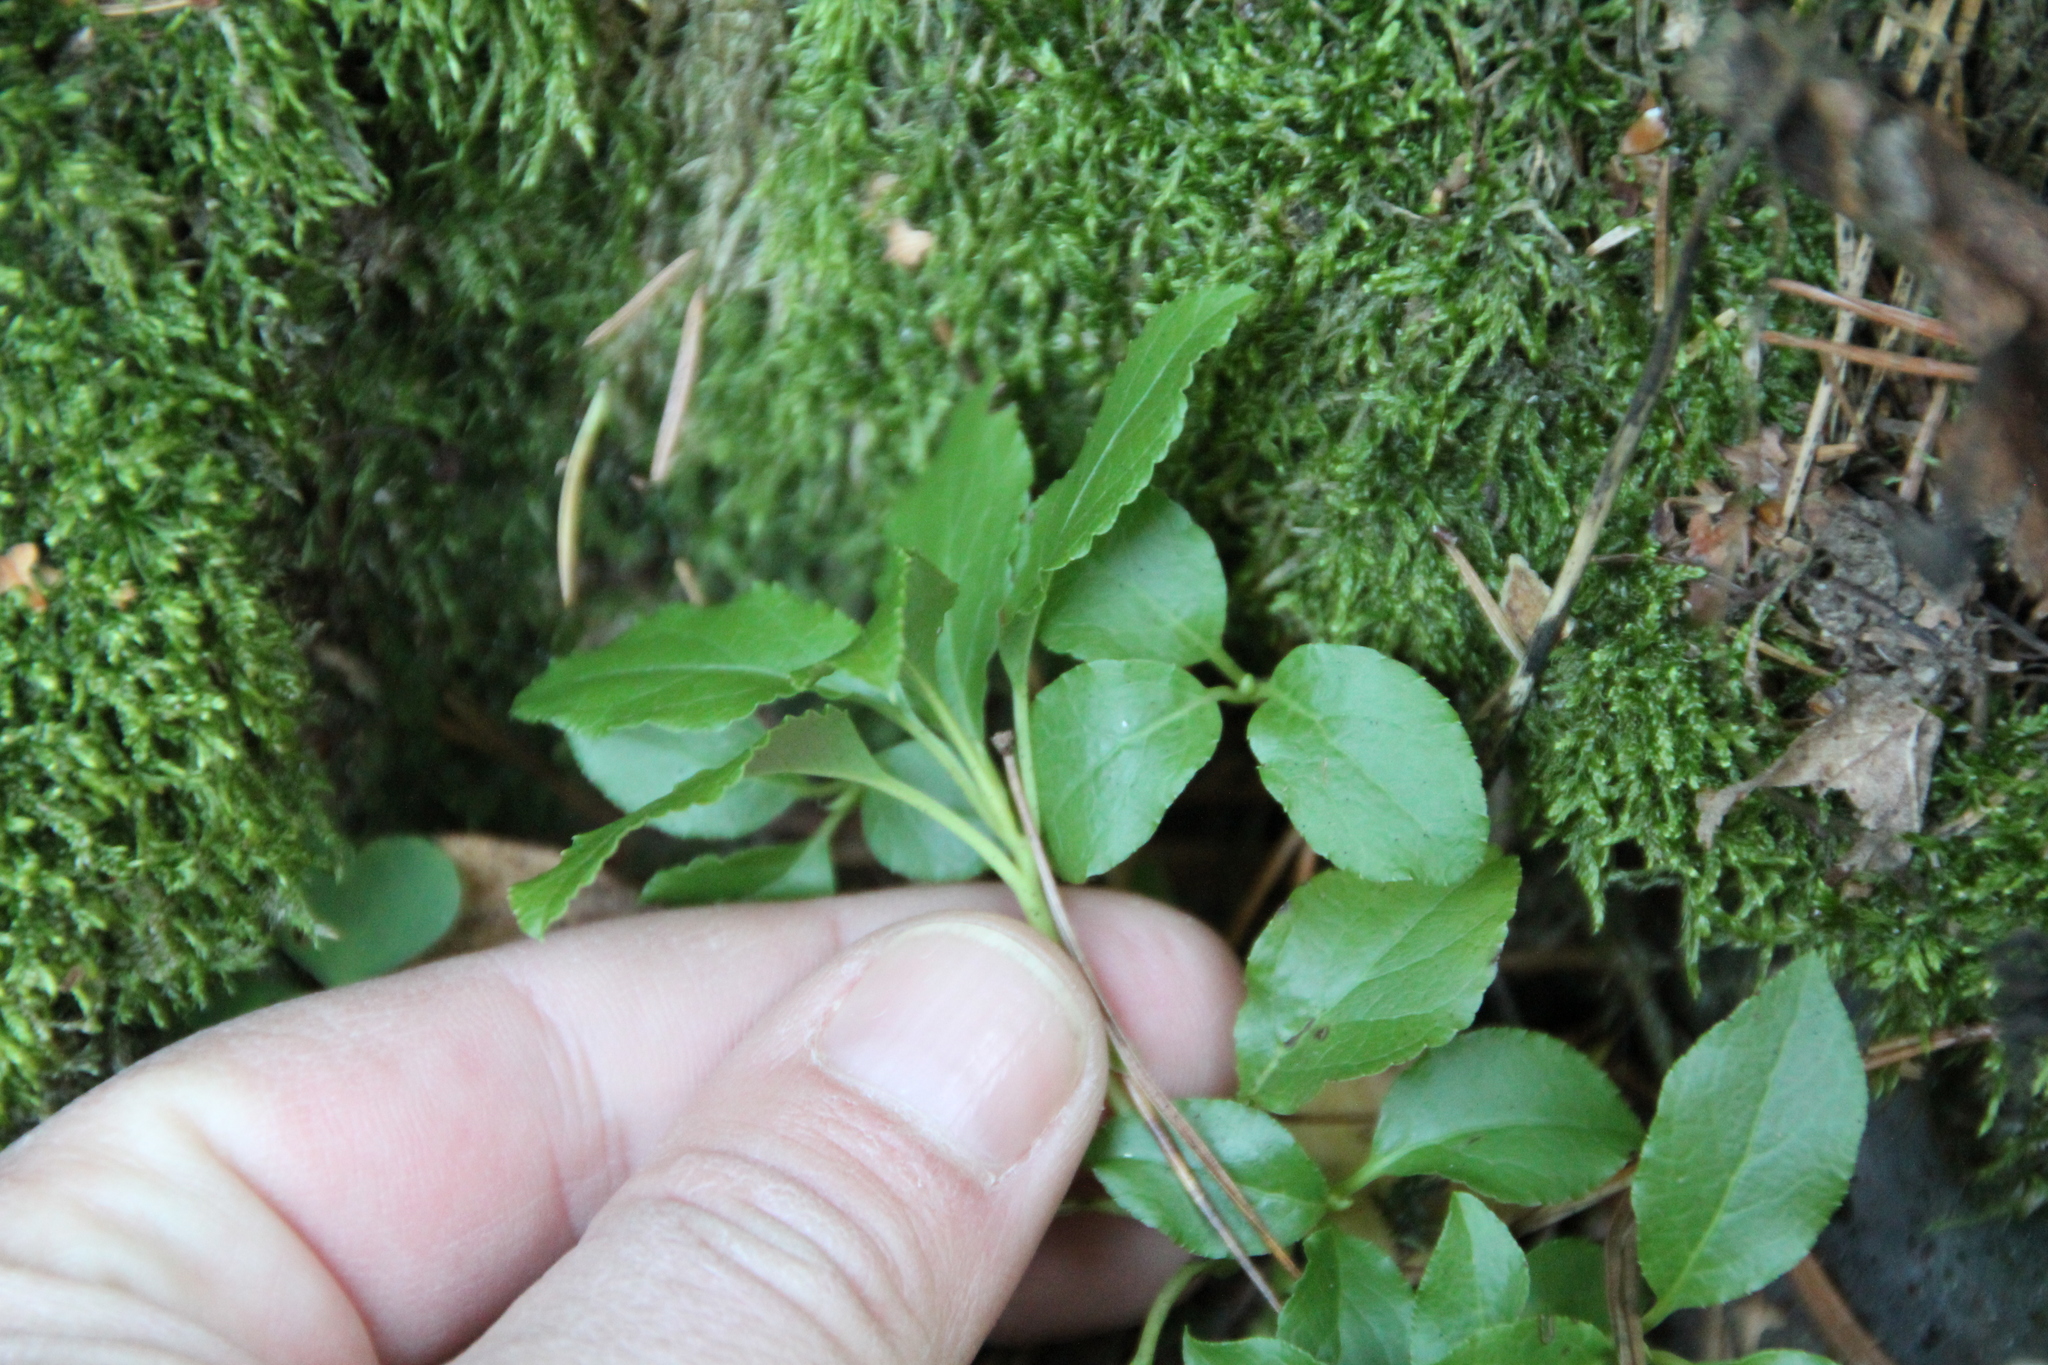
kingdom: Plantae
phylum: Tracheophyta
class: Magnoliopsida
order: Ericales
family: Ericaceae
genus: Orthilia
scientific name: Orthilia secunda
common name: One-sided orthilia
